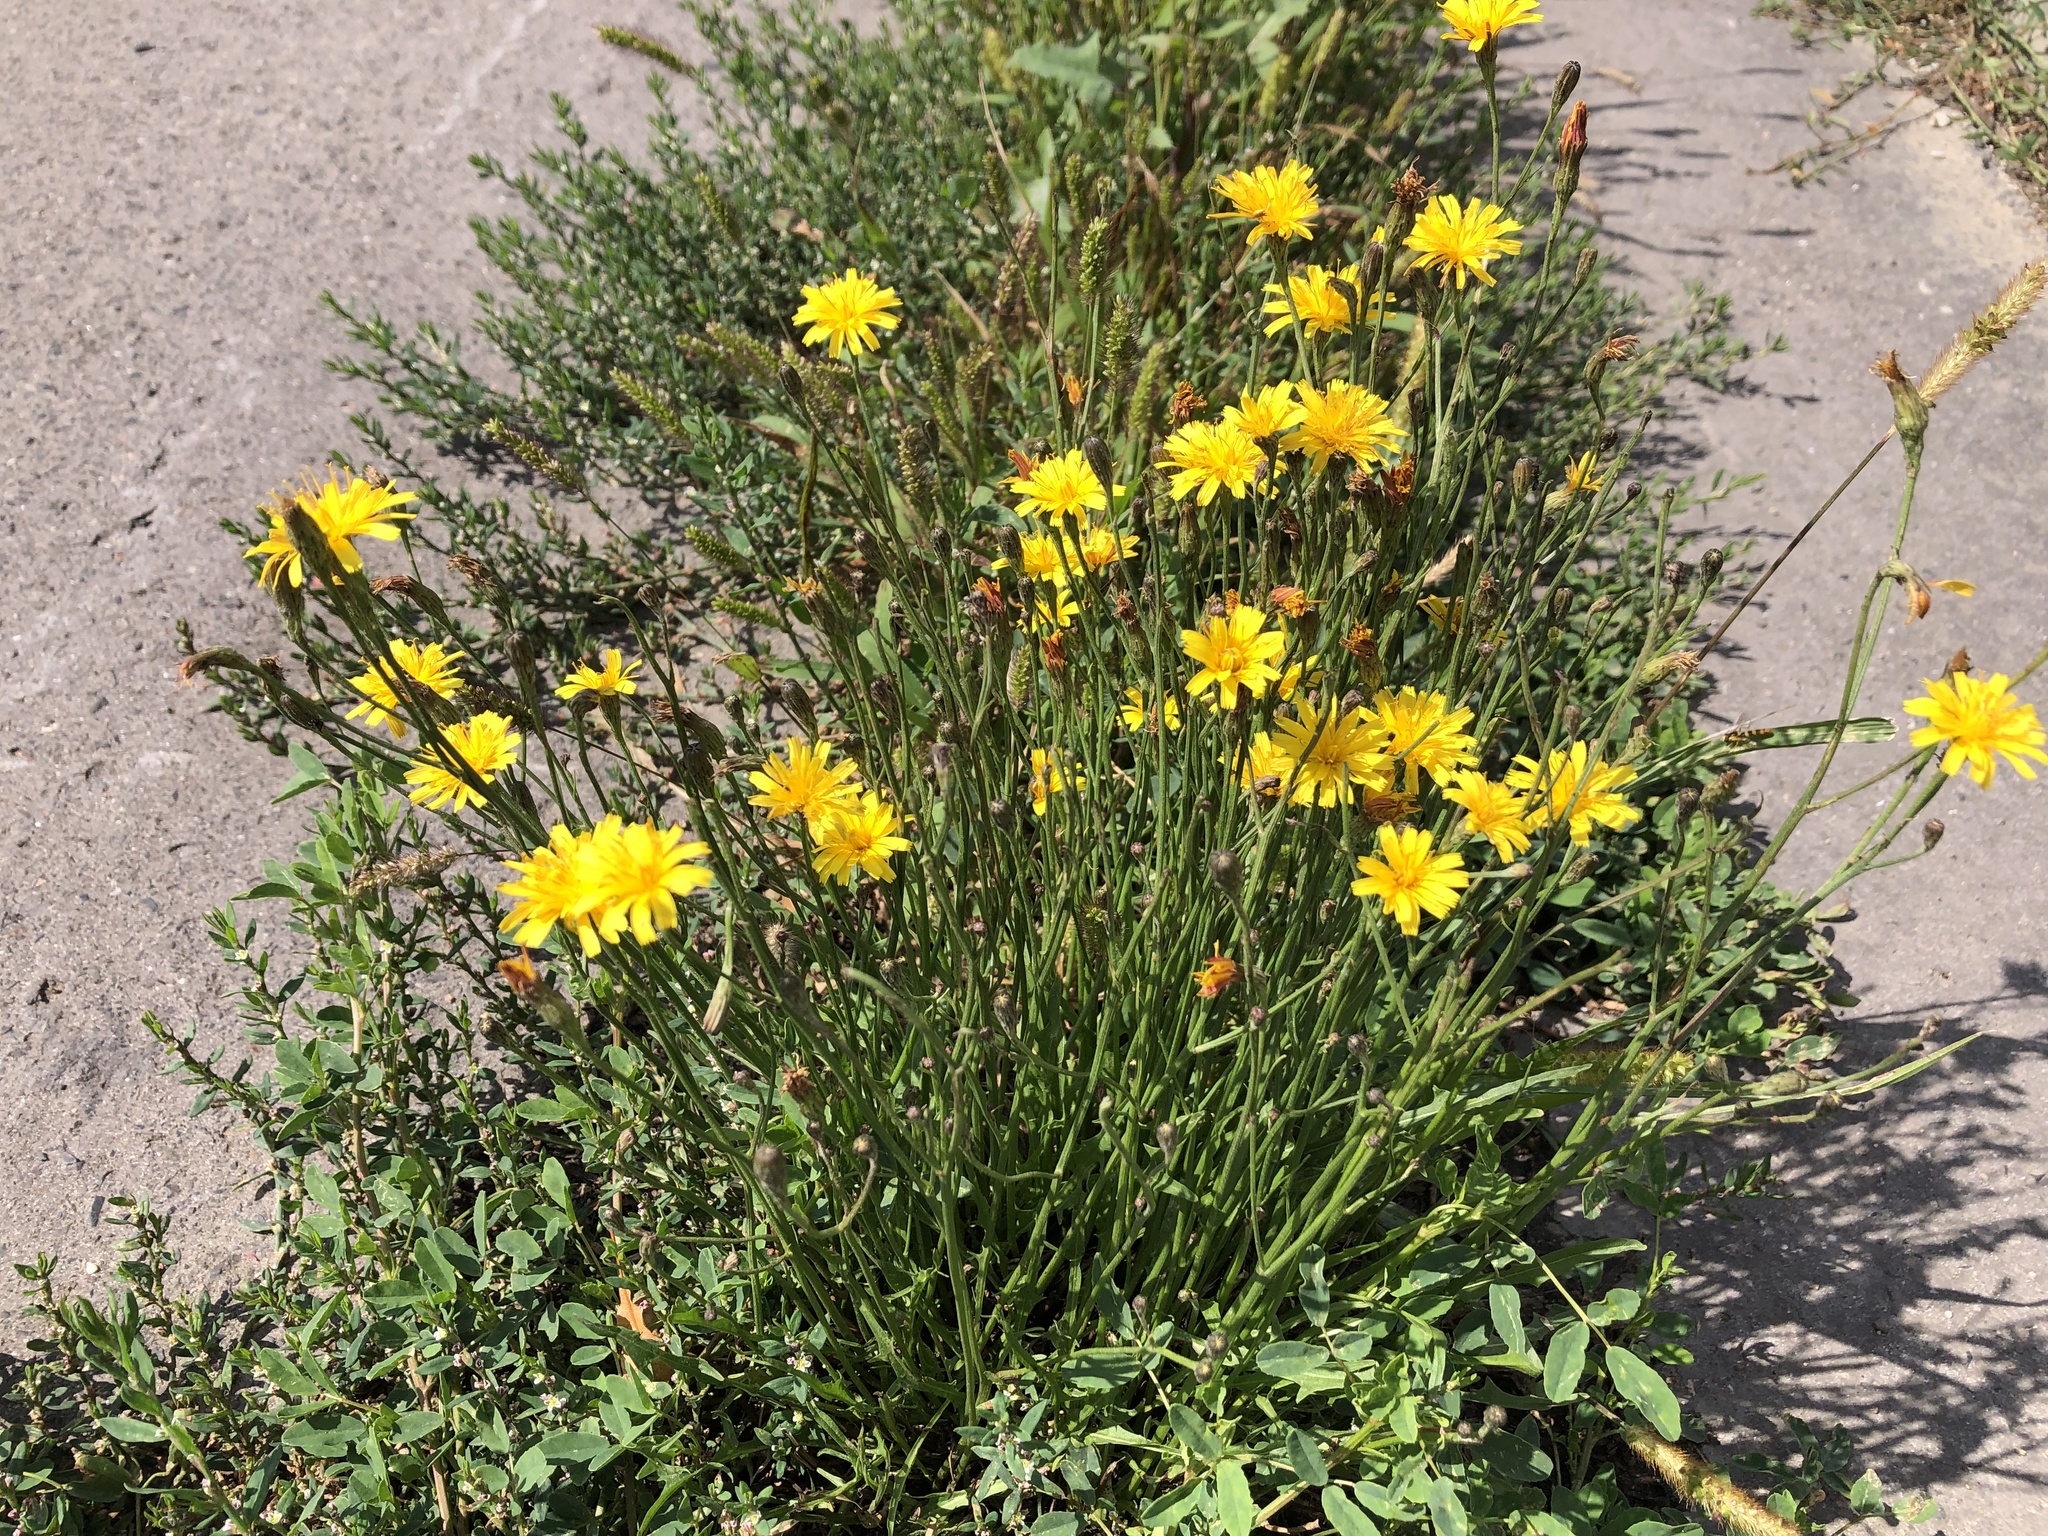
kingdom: Plantae
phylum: Tracheophyta
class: Magnoliopsida
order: Asterales
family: Asteraceae
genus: Scorzoneroides
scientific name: Scorzoneroides autumnalis
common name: Autumn hawkbit
